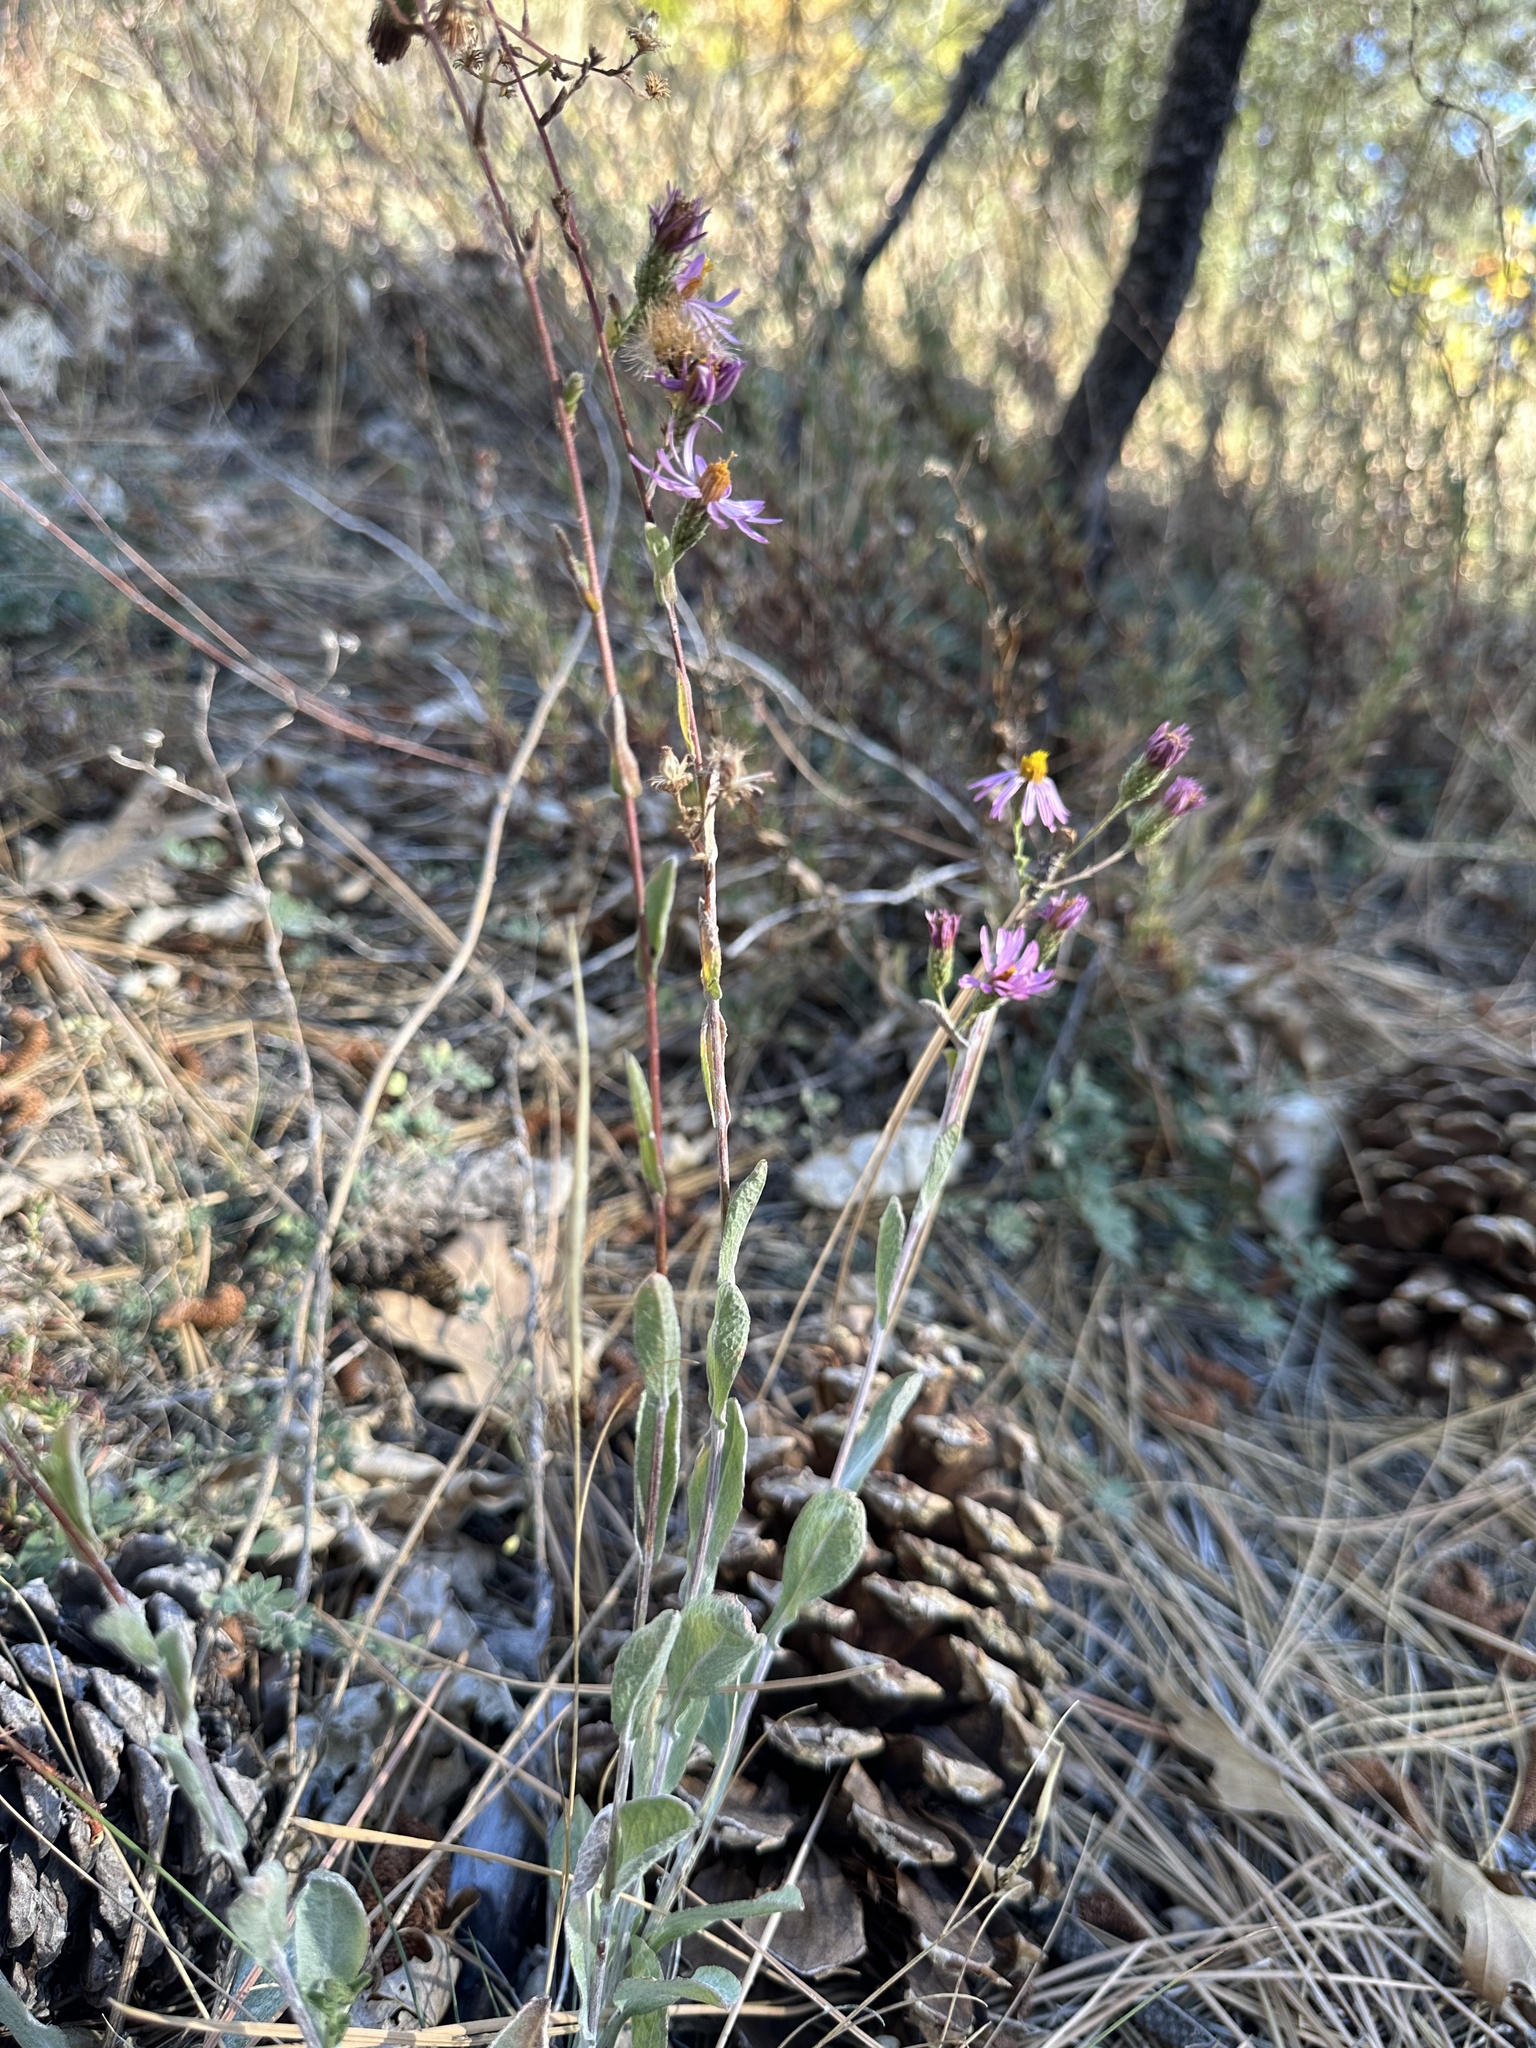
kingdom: Plantae
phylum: Tracheophyta
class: Magnoliopsida
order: Asterales
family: Asteraceae
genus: Corethrogyne
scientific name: Corethrogyne filaginifolia
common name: Sand-aster
